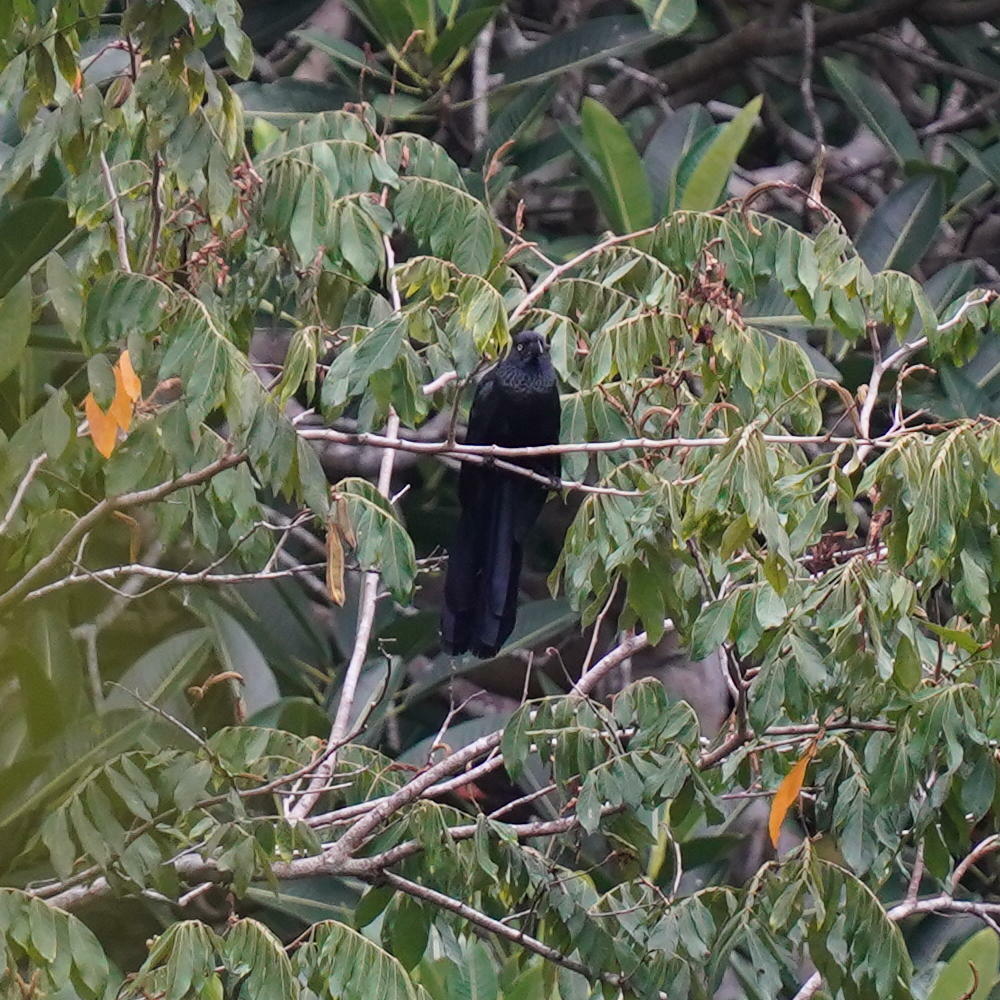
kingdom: Animalia
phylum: Chordata
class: Aves
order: Cuculiformes
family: Cuculidae
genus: Crotophaga
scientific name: Crotophaga major
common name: Greater ani
